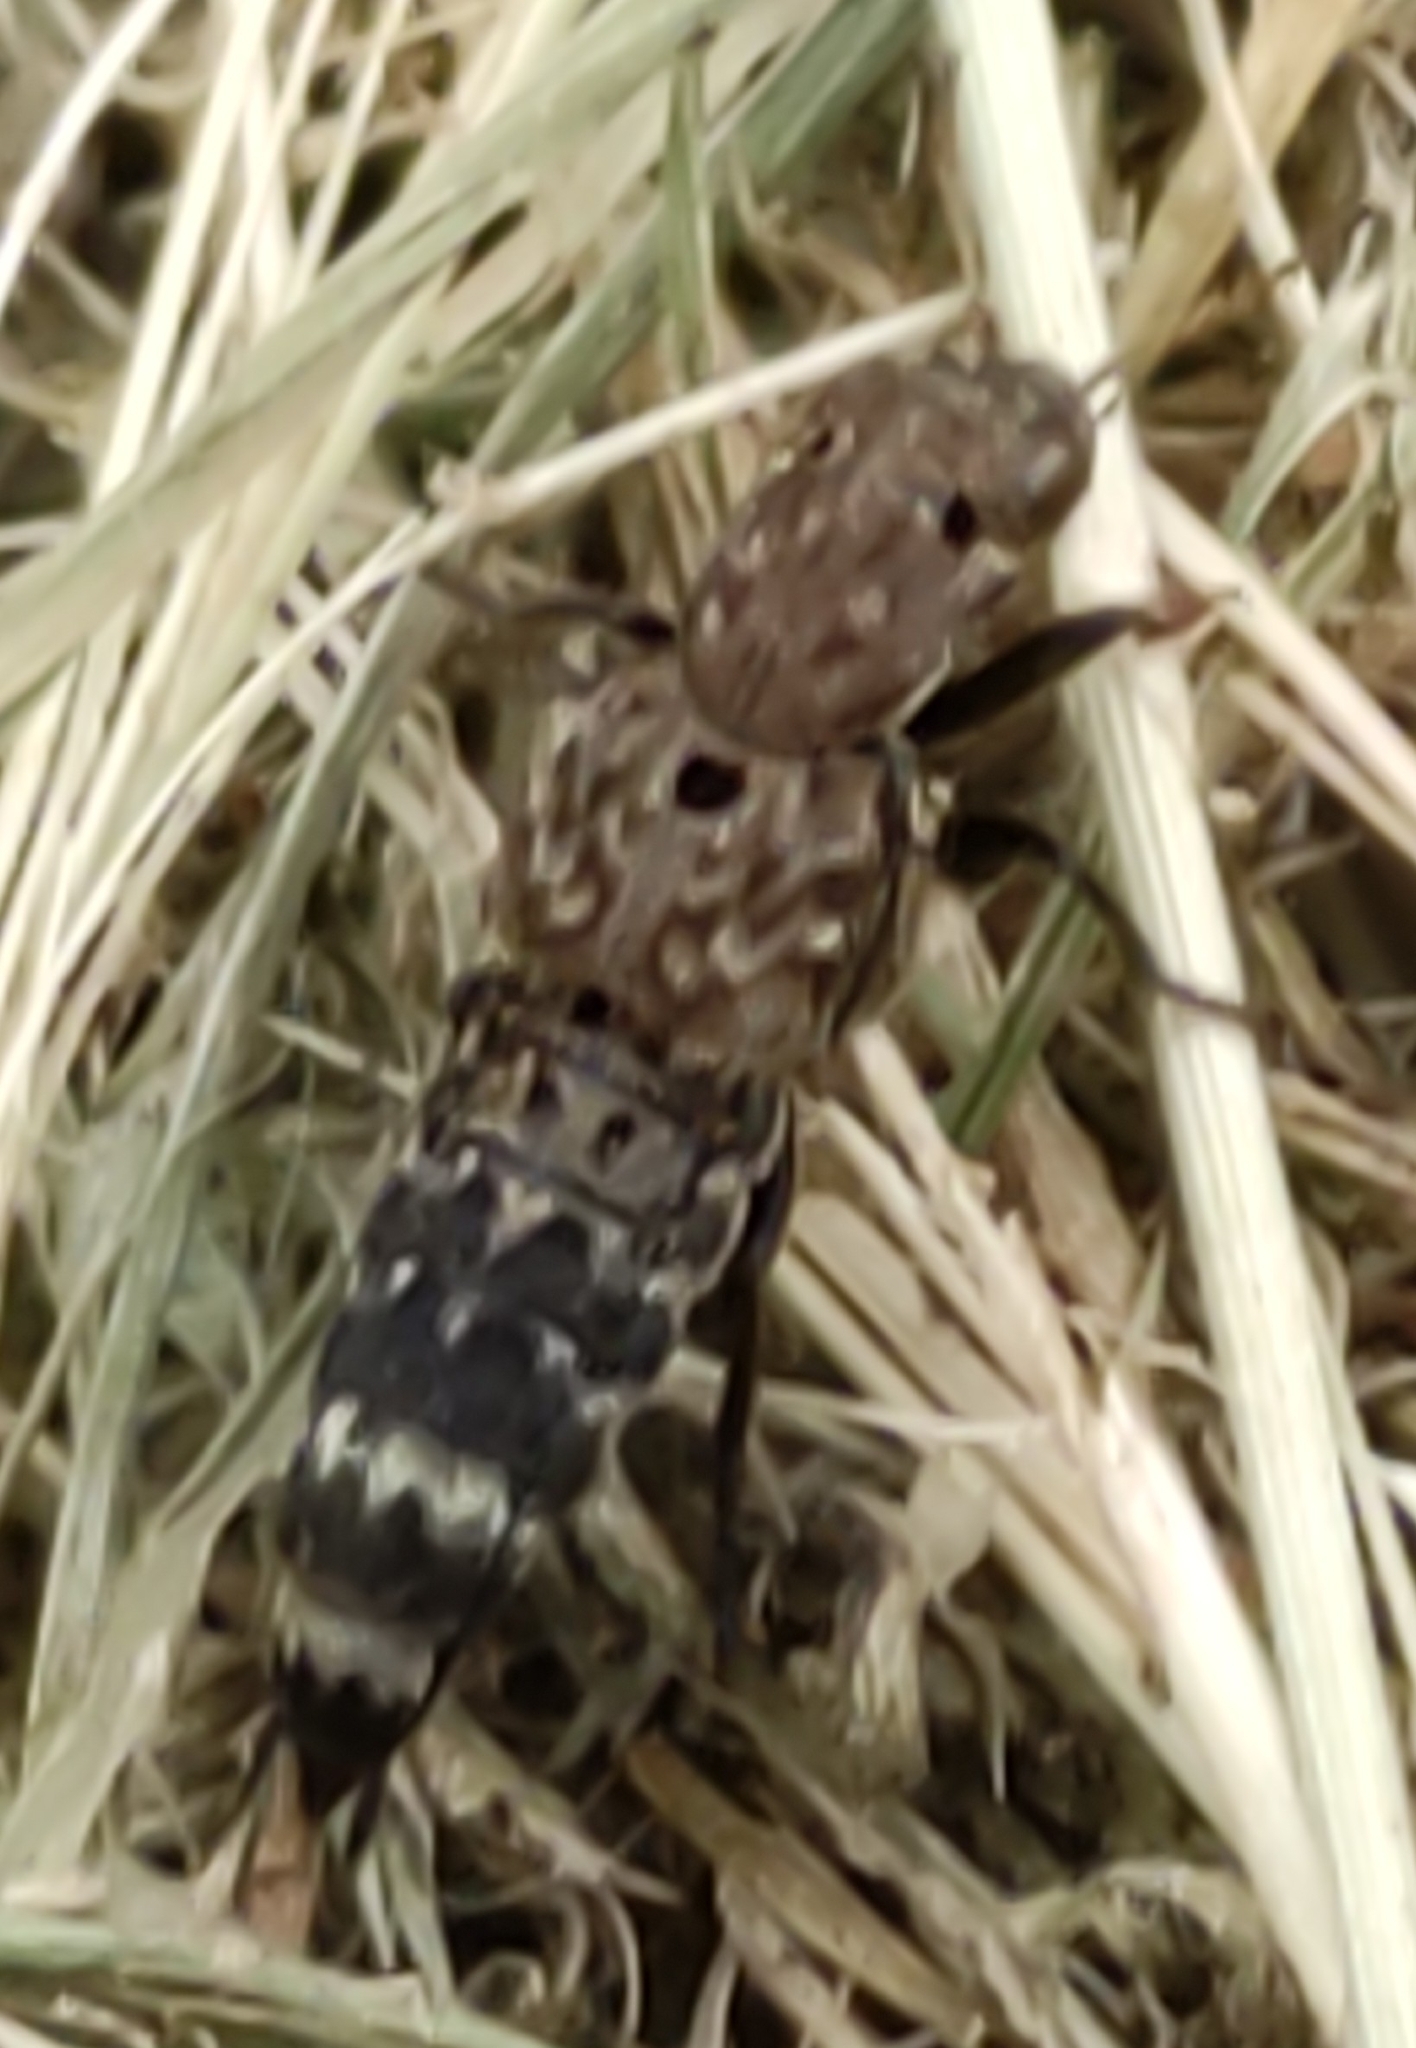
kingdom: Animalia
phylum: Arthropoda
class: Insecta
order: Coleoptera
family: Staphylinidae
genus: Ontholestes
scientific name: Ontholestes murinus
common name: Staph beetle
